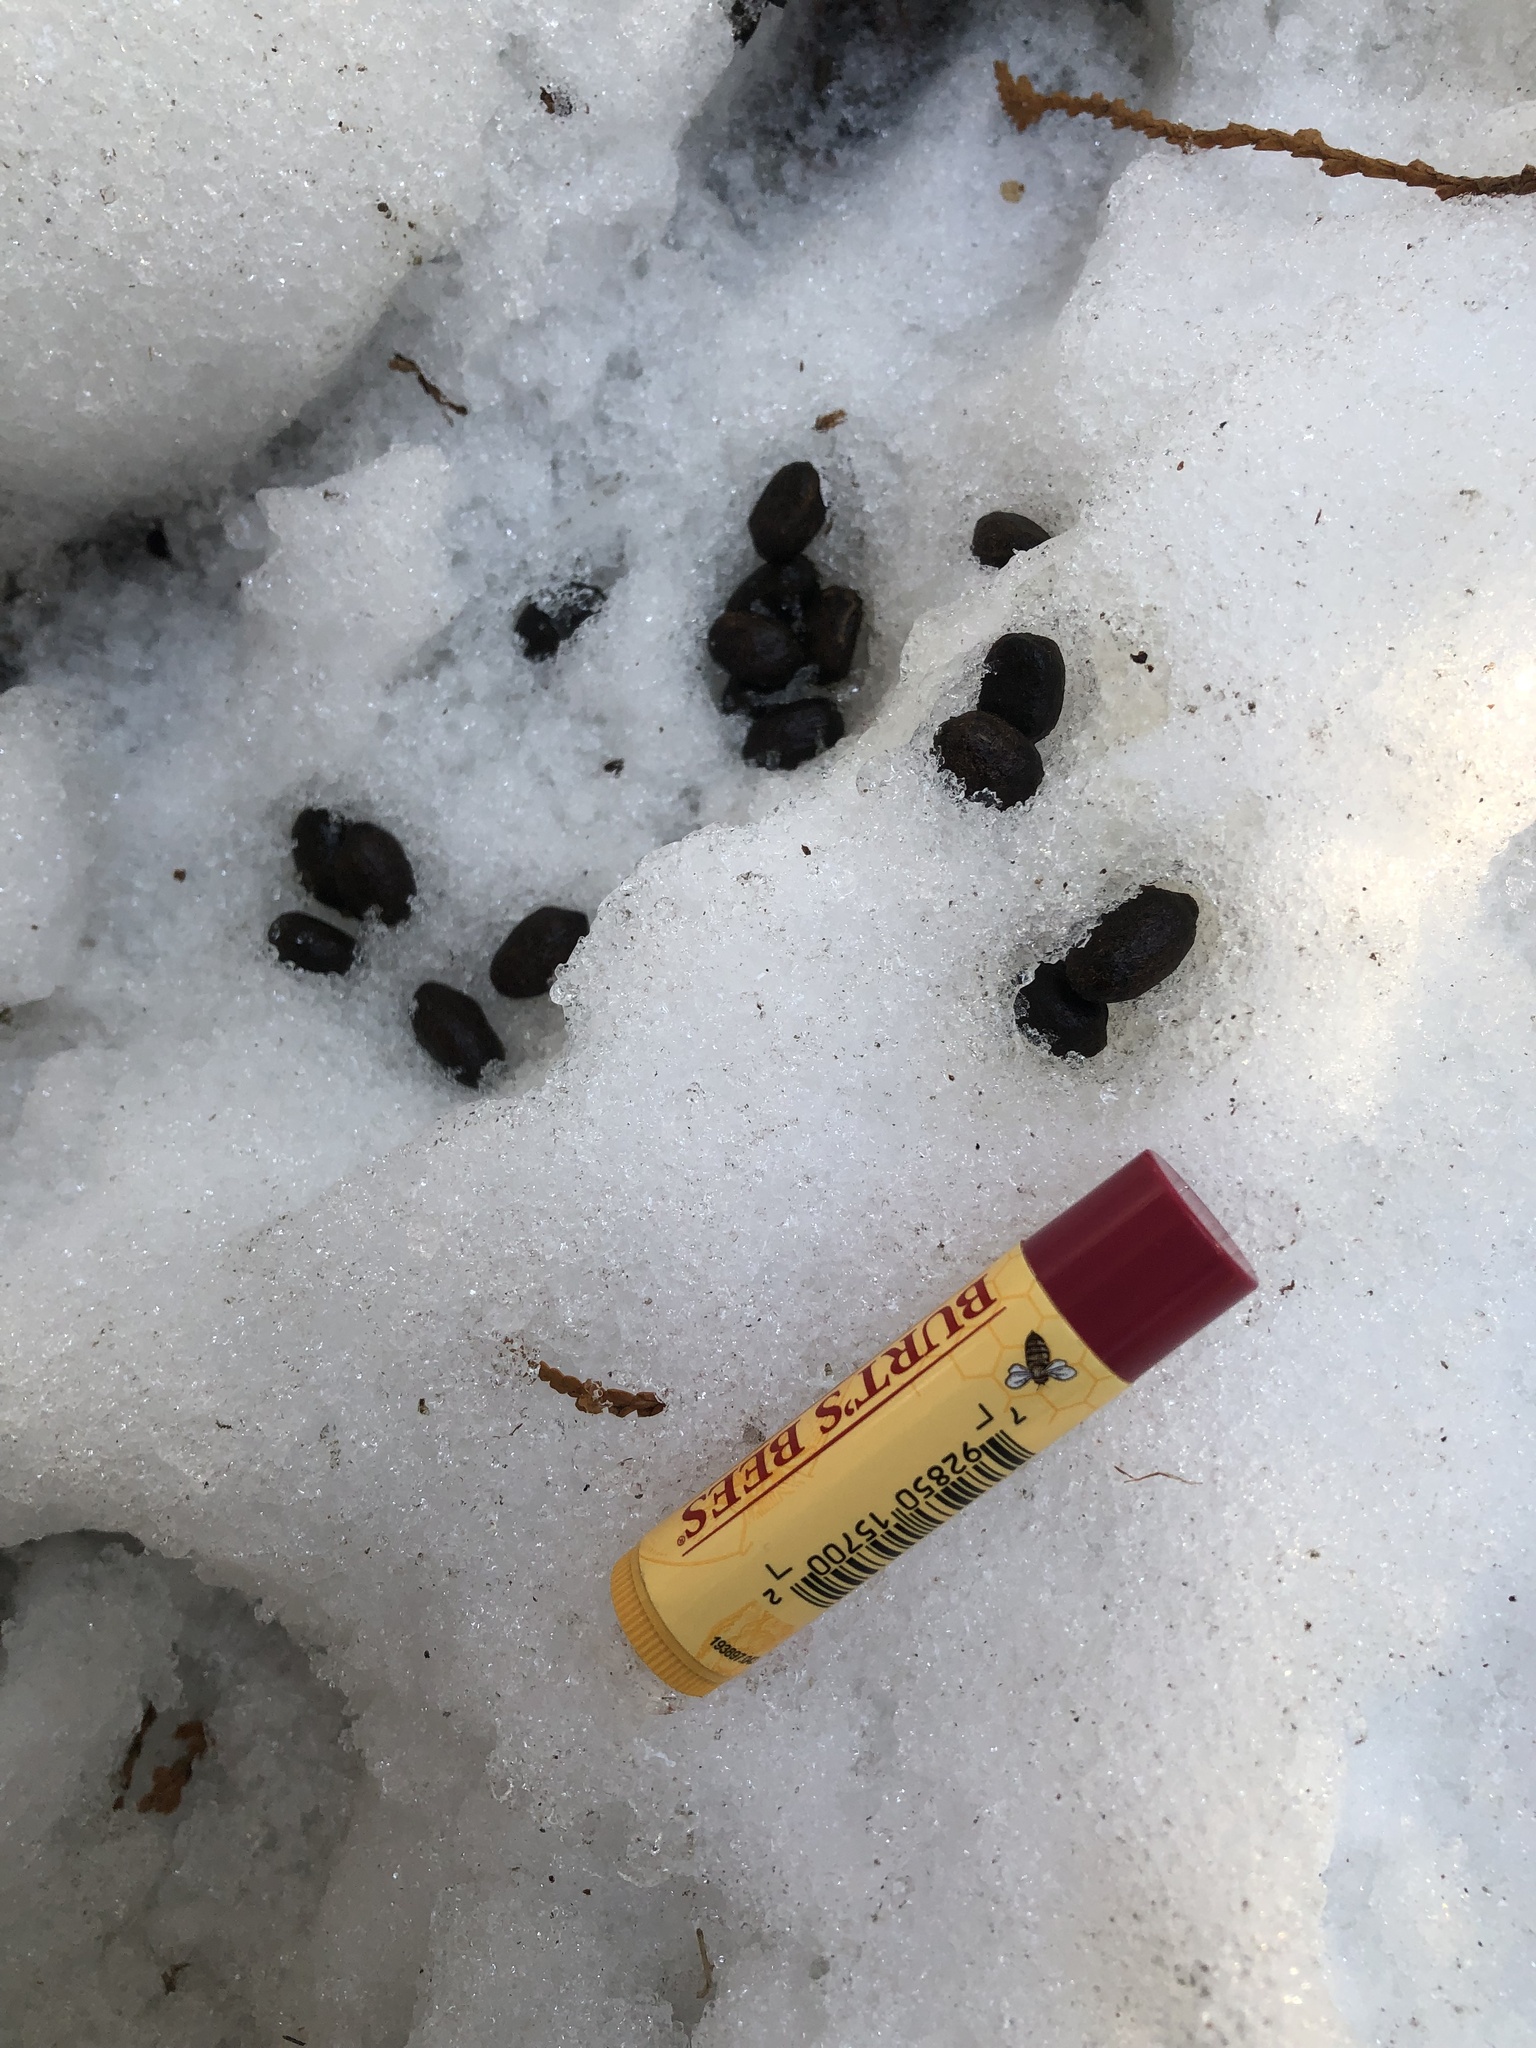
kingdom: Animalia
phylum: Chordata
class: Mammalia
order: Artiodactyla
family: Cervidae
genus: Odocoileus
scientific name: Odocoileus virginianus
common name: White-tailed deer
